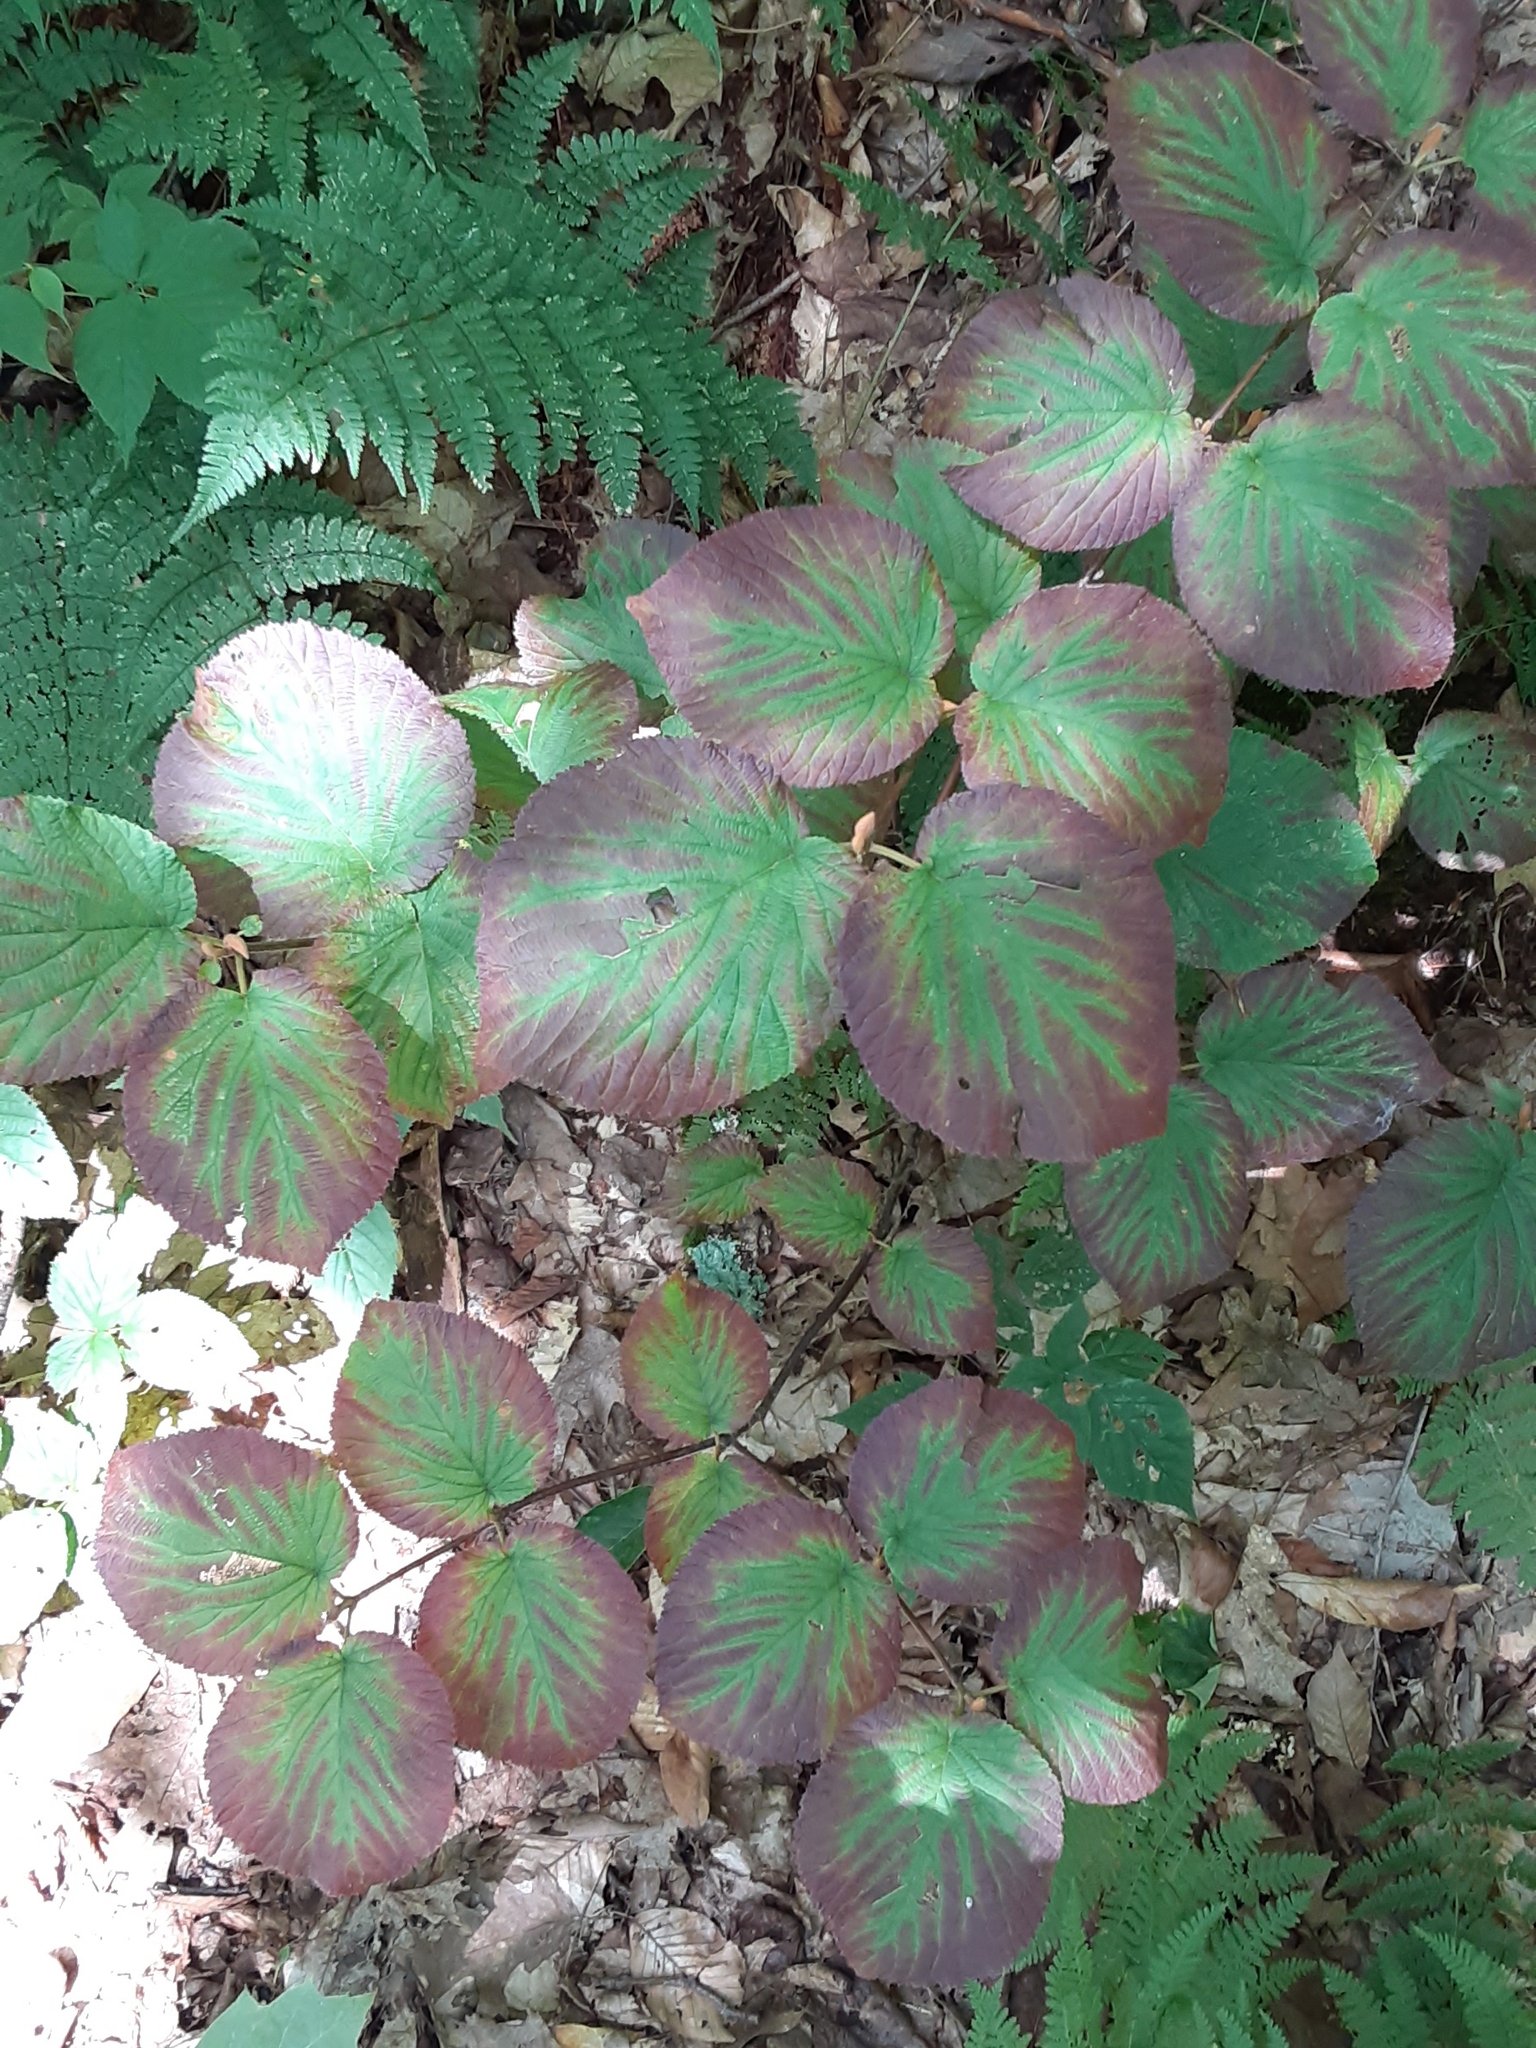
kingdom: Plantae
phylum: Tracheophyta
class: Magnoliopsida
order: Dipsacales
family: Viburnaceae
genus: Viburnum
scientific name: Viburnum lantanoides
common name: Hobblebush
